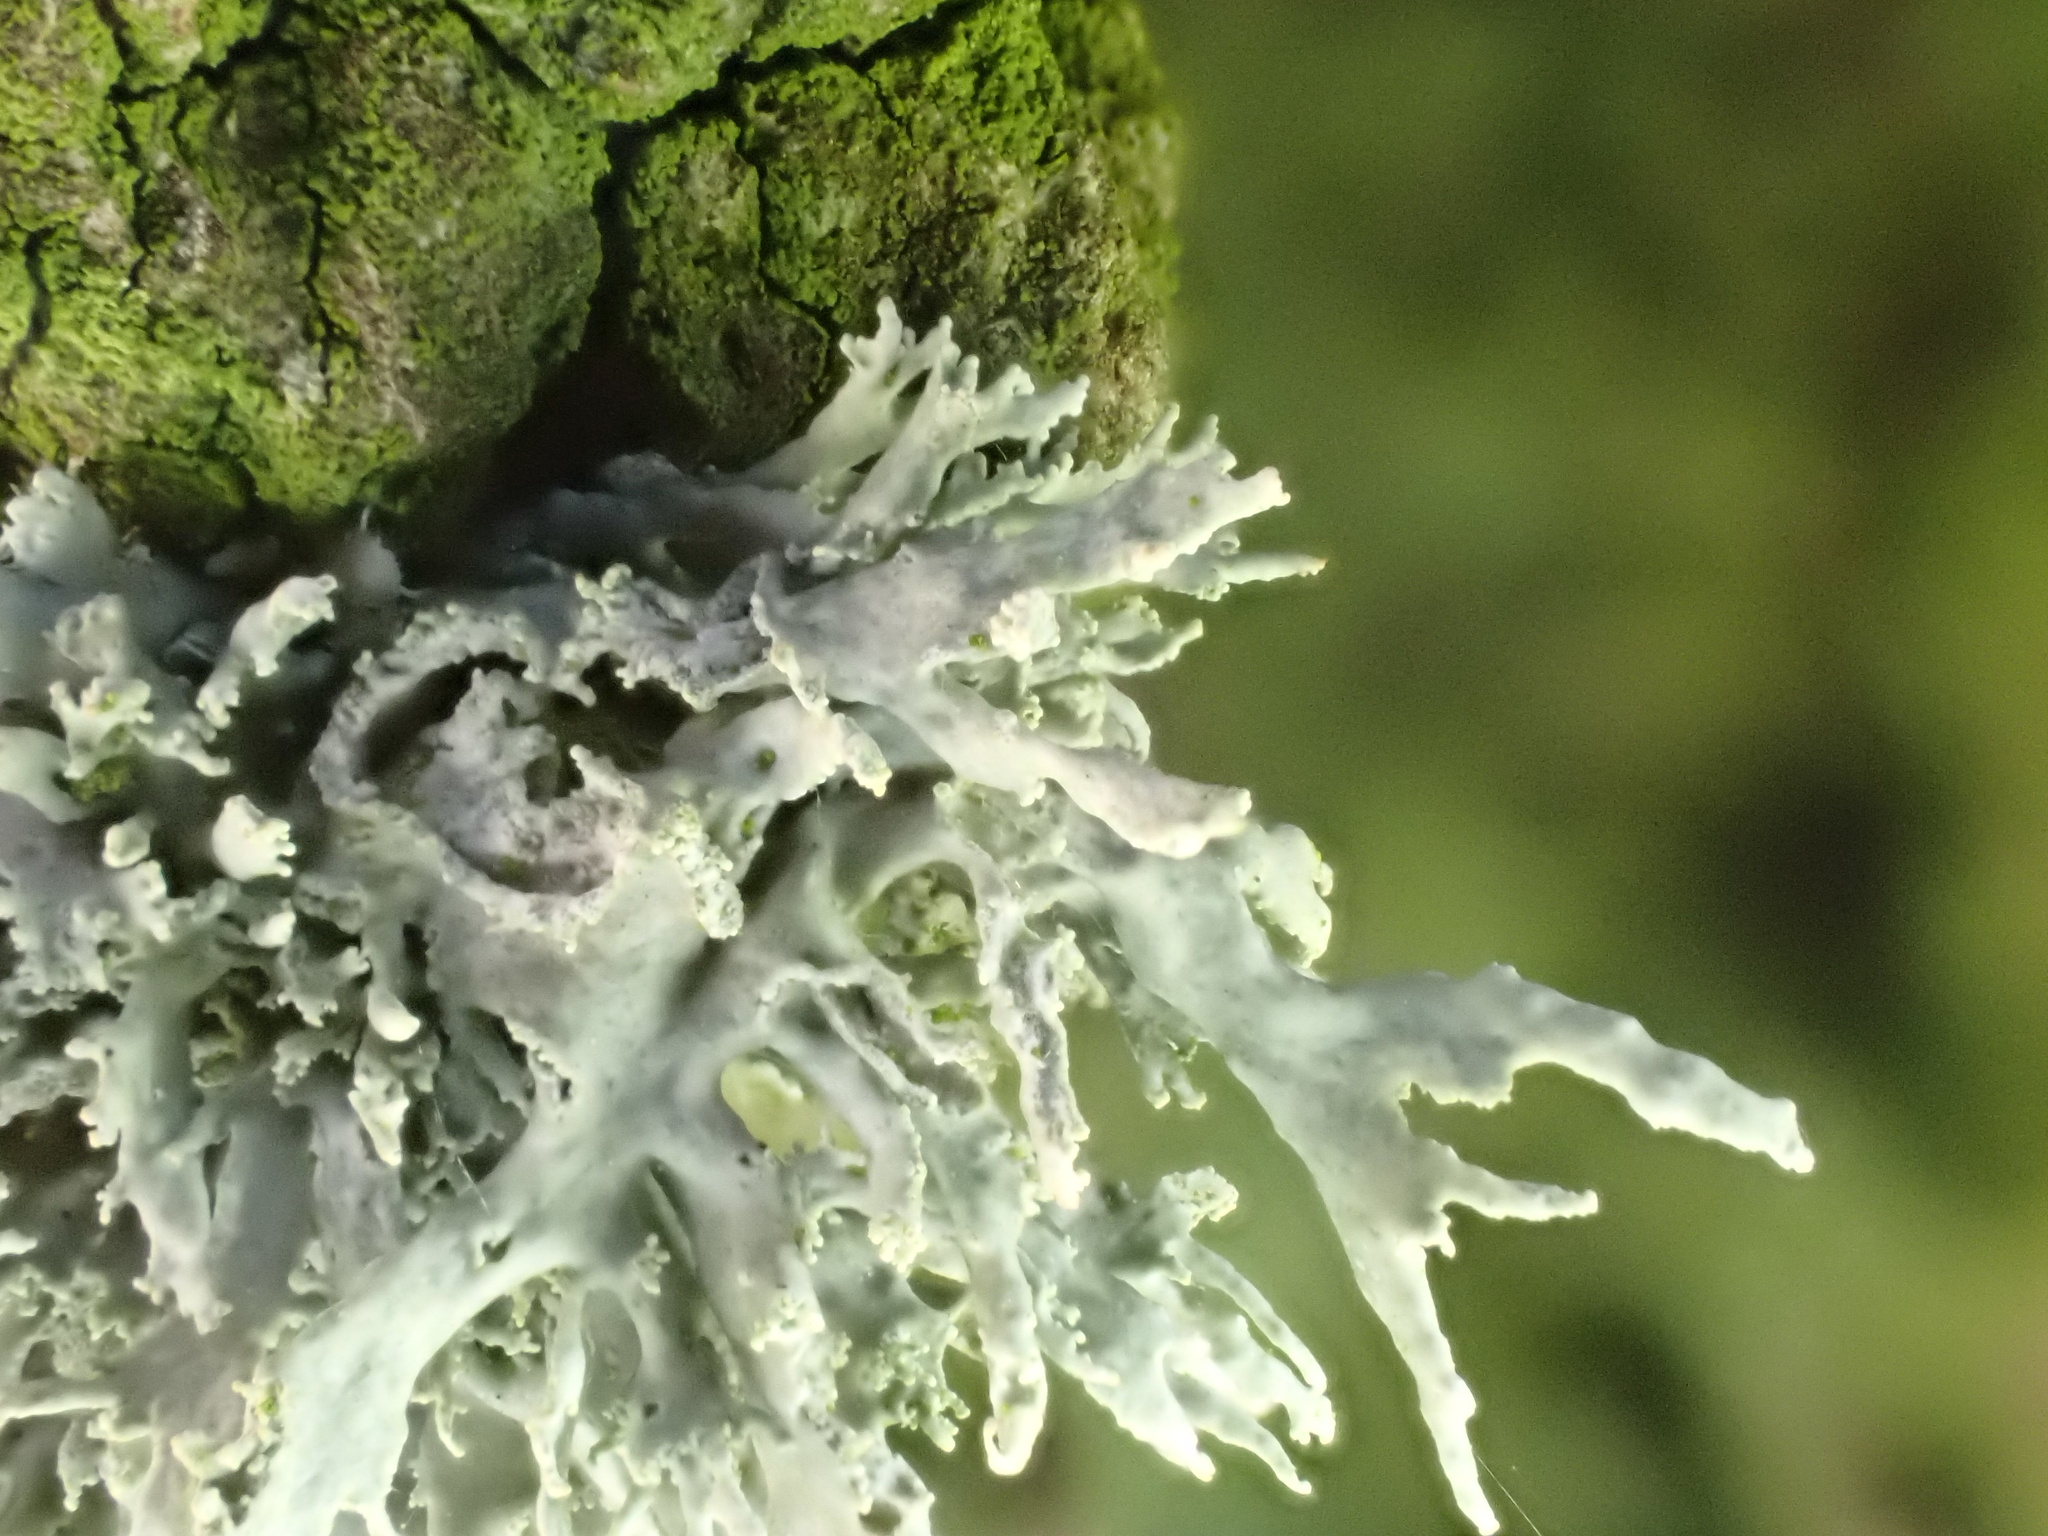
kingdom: Fungi
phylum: Ascomycota
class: Lecanoromycetes
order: Lecanorales
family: Ramalinaceae
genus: Ramalina
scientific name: Ramalina farinacea
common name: Farinose cartilage lichen
